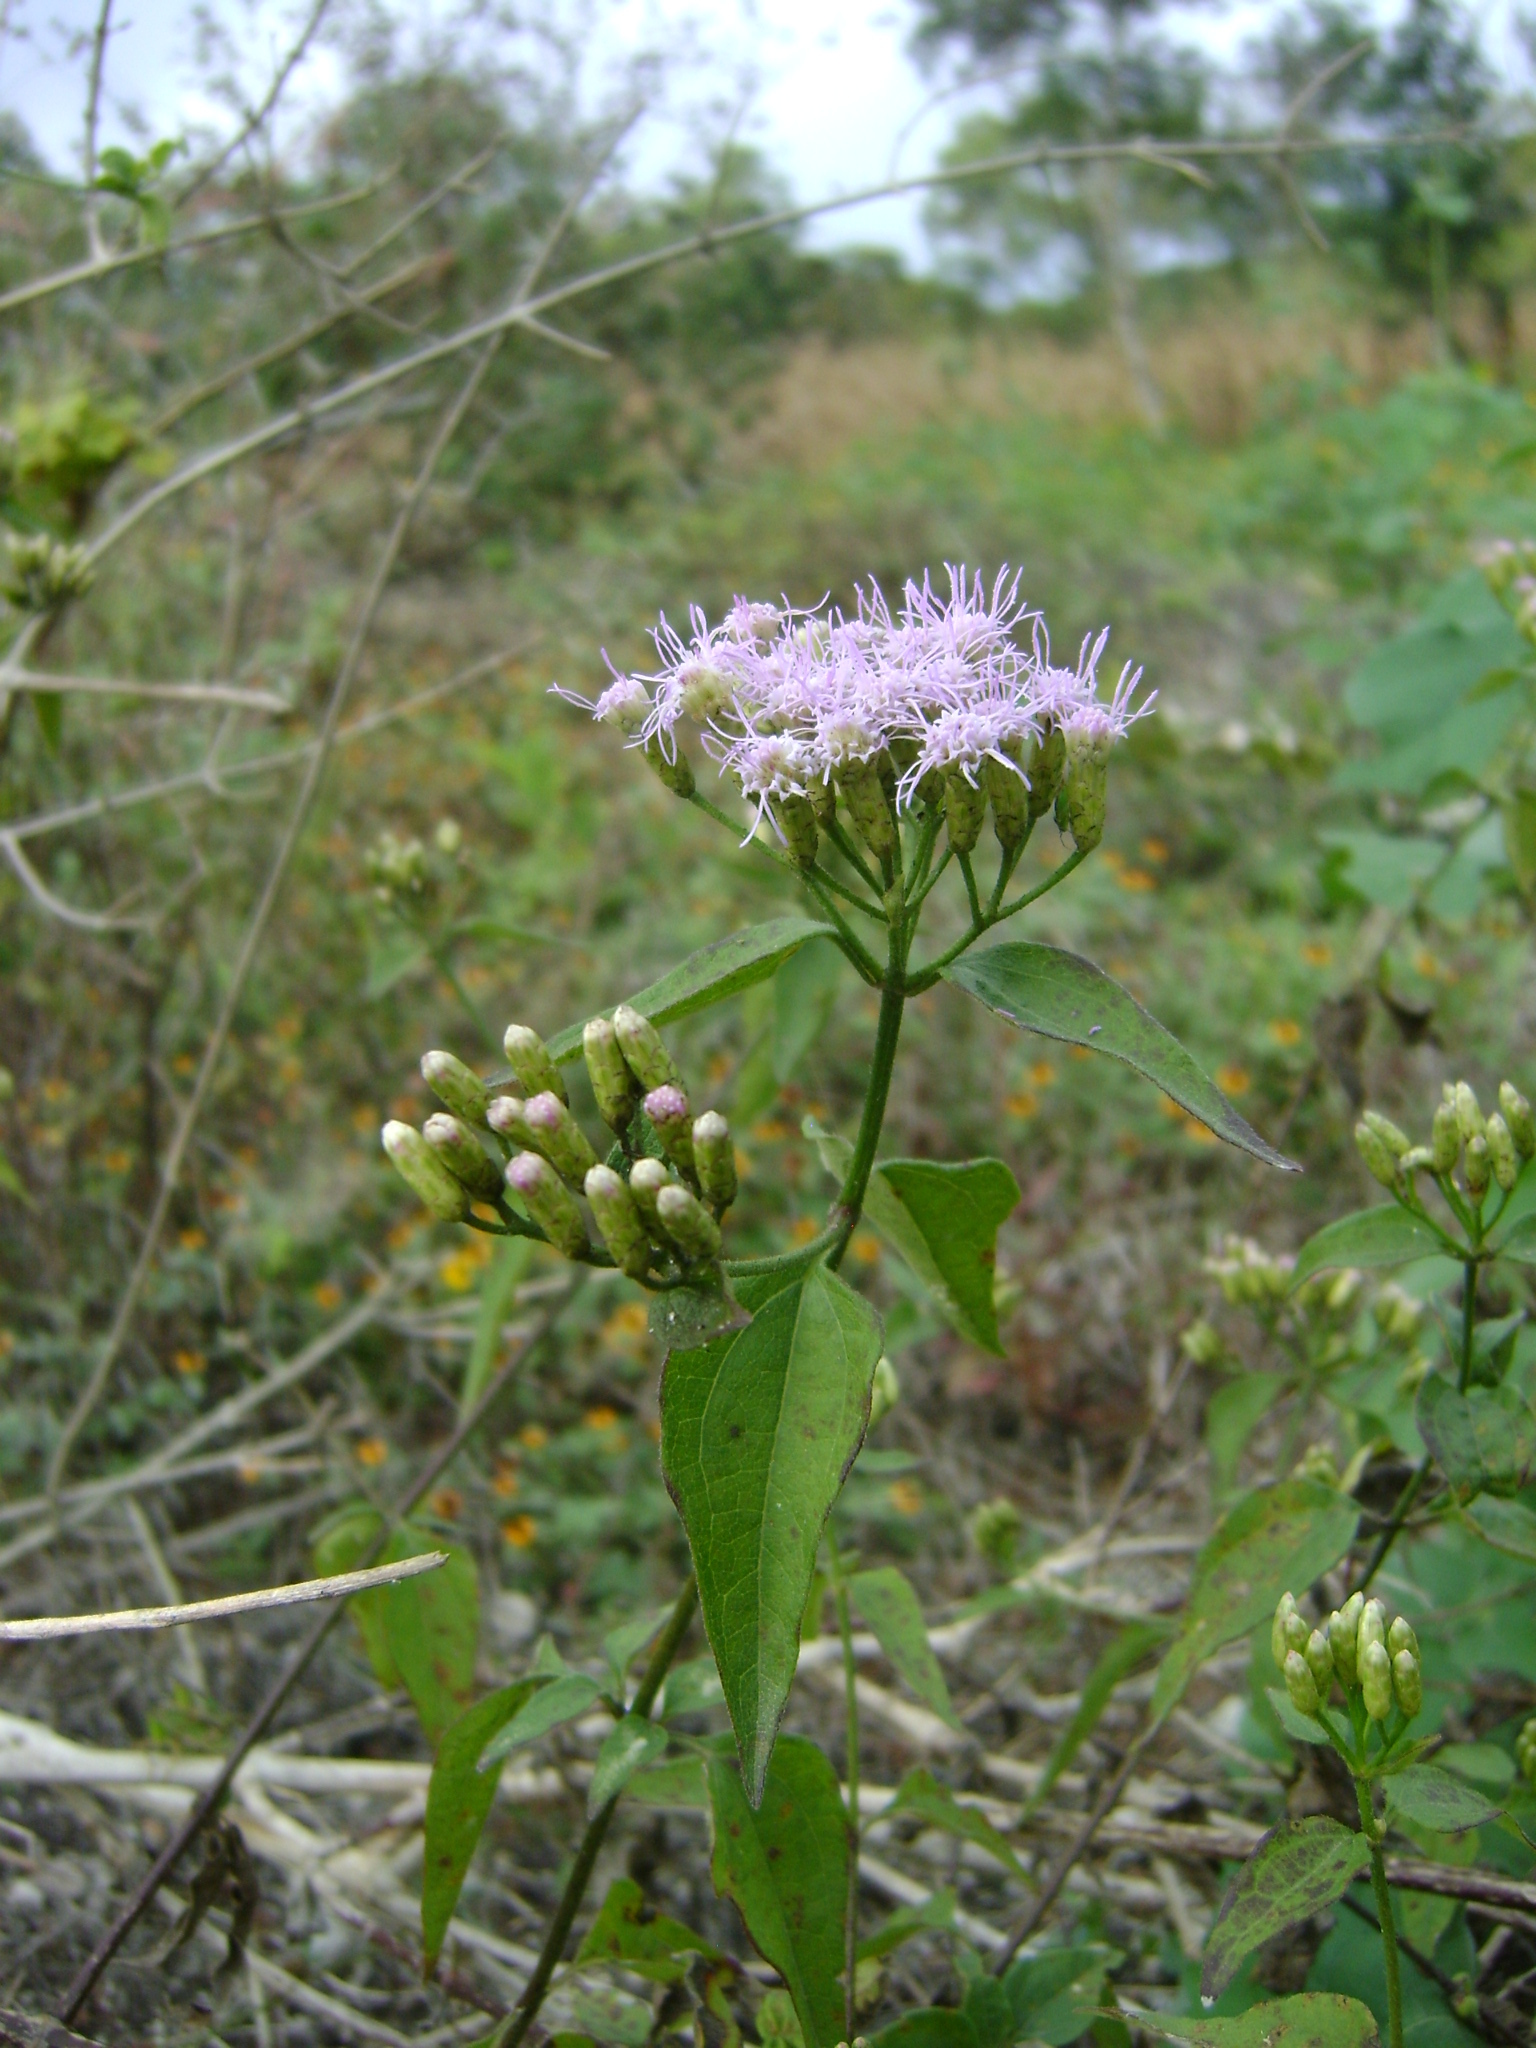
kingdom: Plantae
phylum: Tracheophyta
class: Magnoliopsida
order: Asterales
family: Asteraceae
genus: Chromolaena
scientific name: Chromolaena odorata
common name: Siamweed
